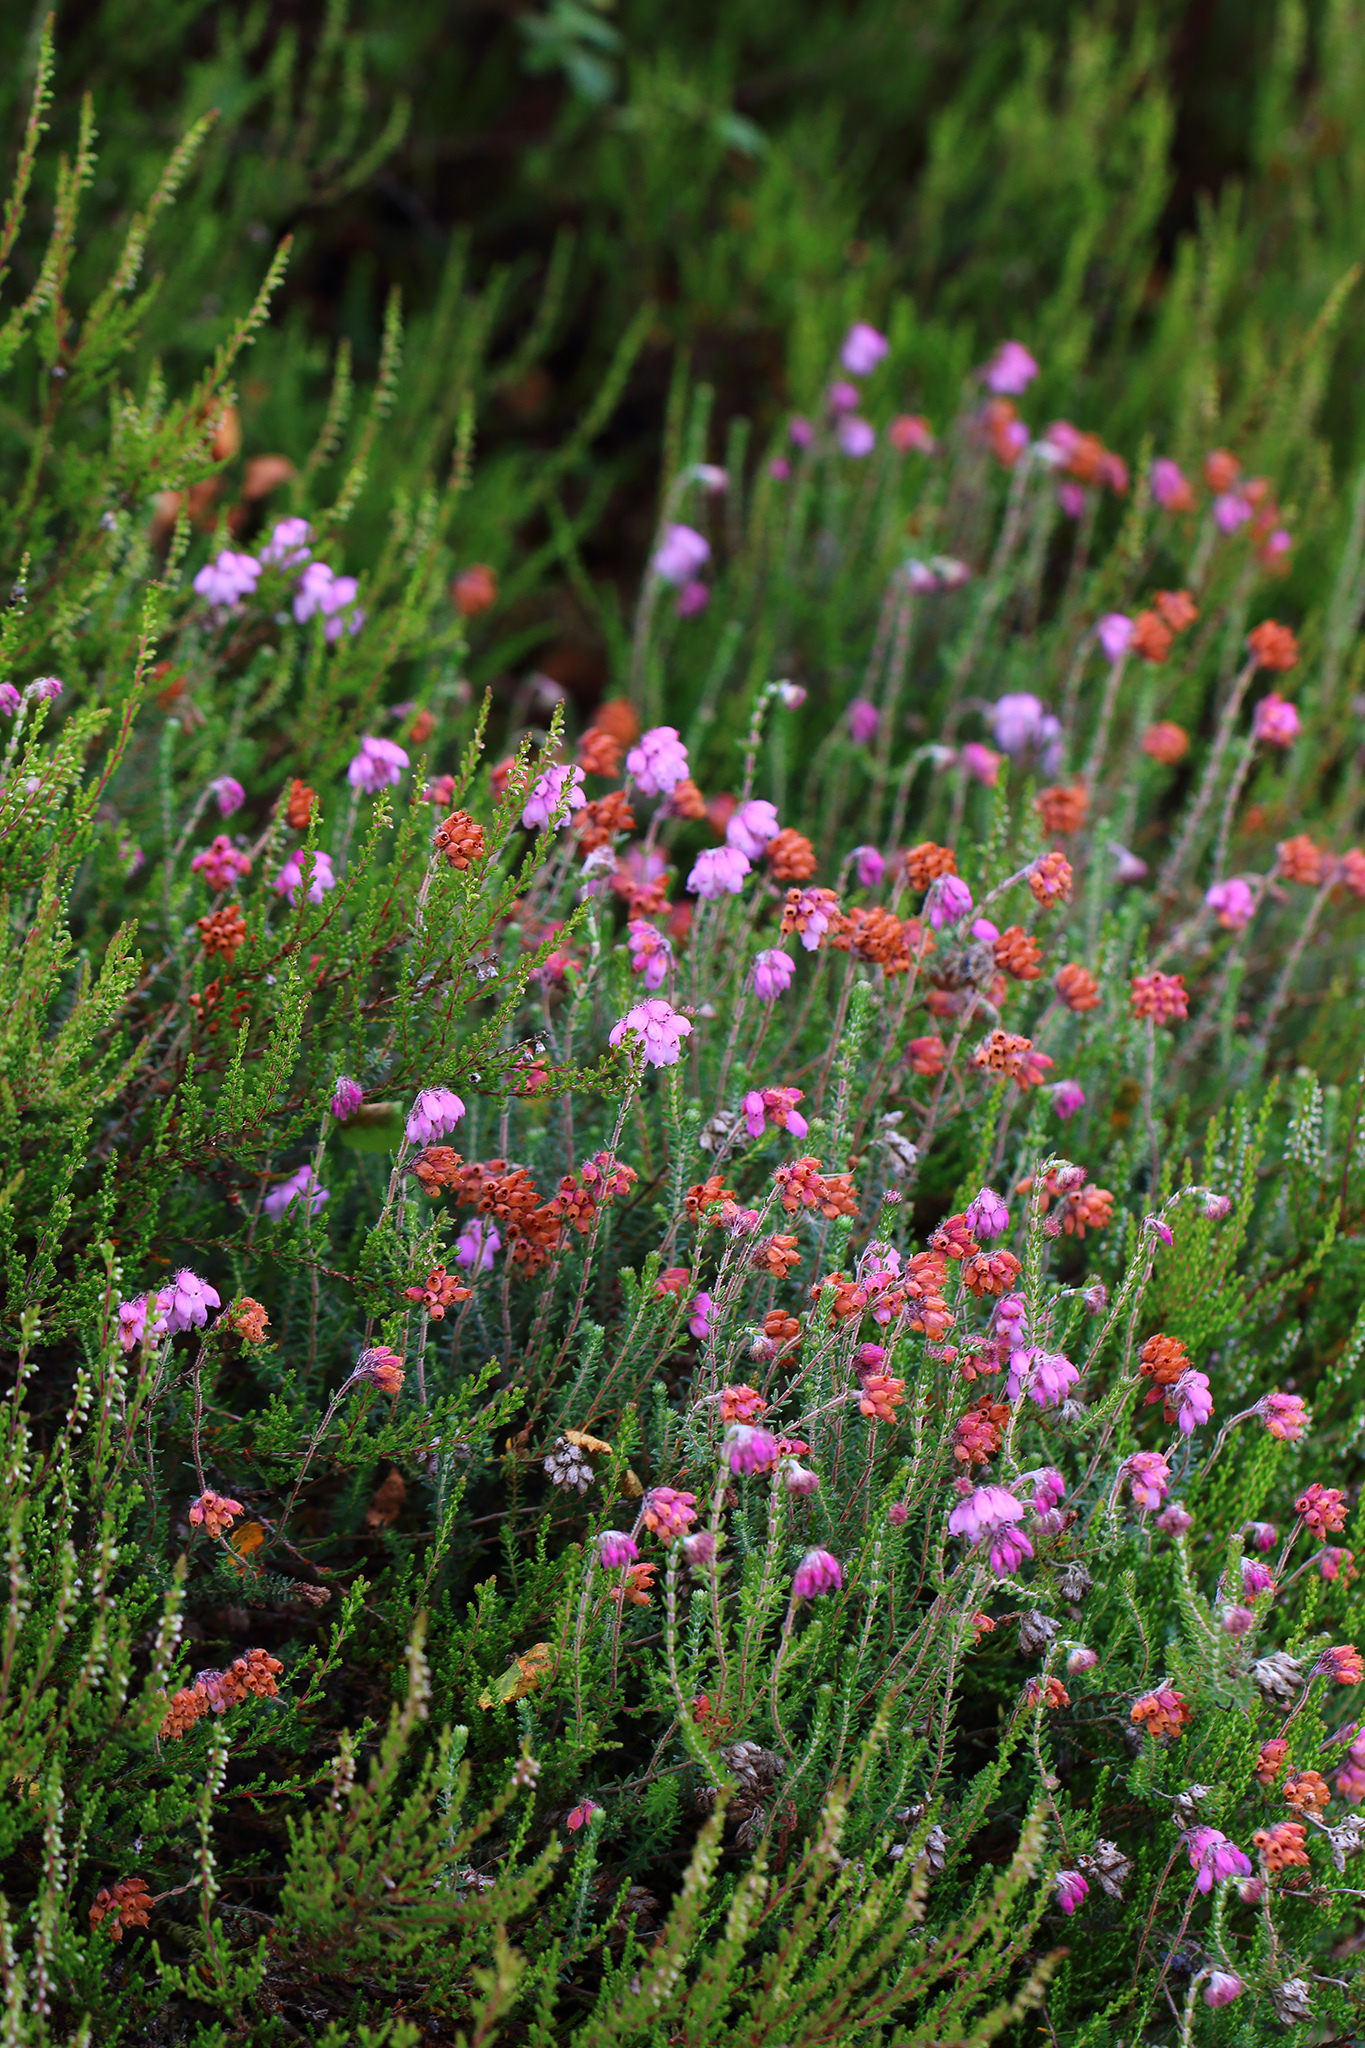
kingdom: Plantae
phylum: Tracheophyta
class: Magnoliopsida
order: Ericales
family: Ericaceae
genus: Erica
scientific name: Erica tetralix
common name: Cross-leaved heath
